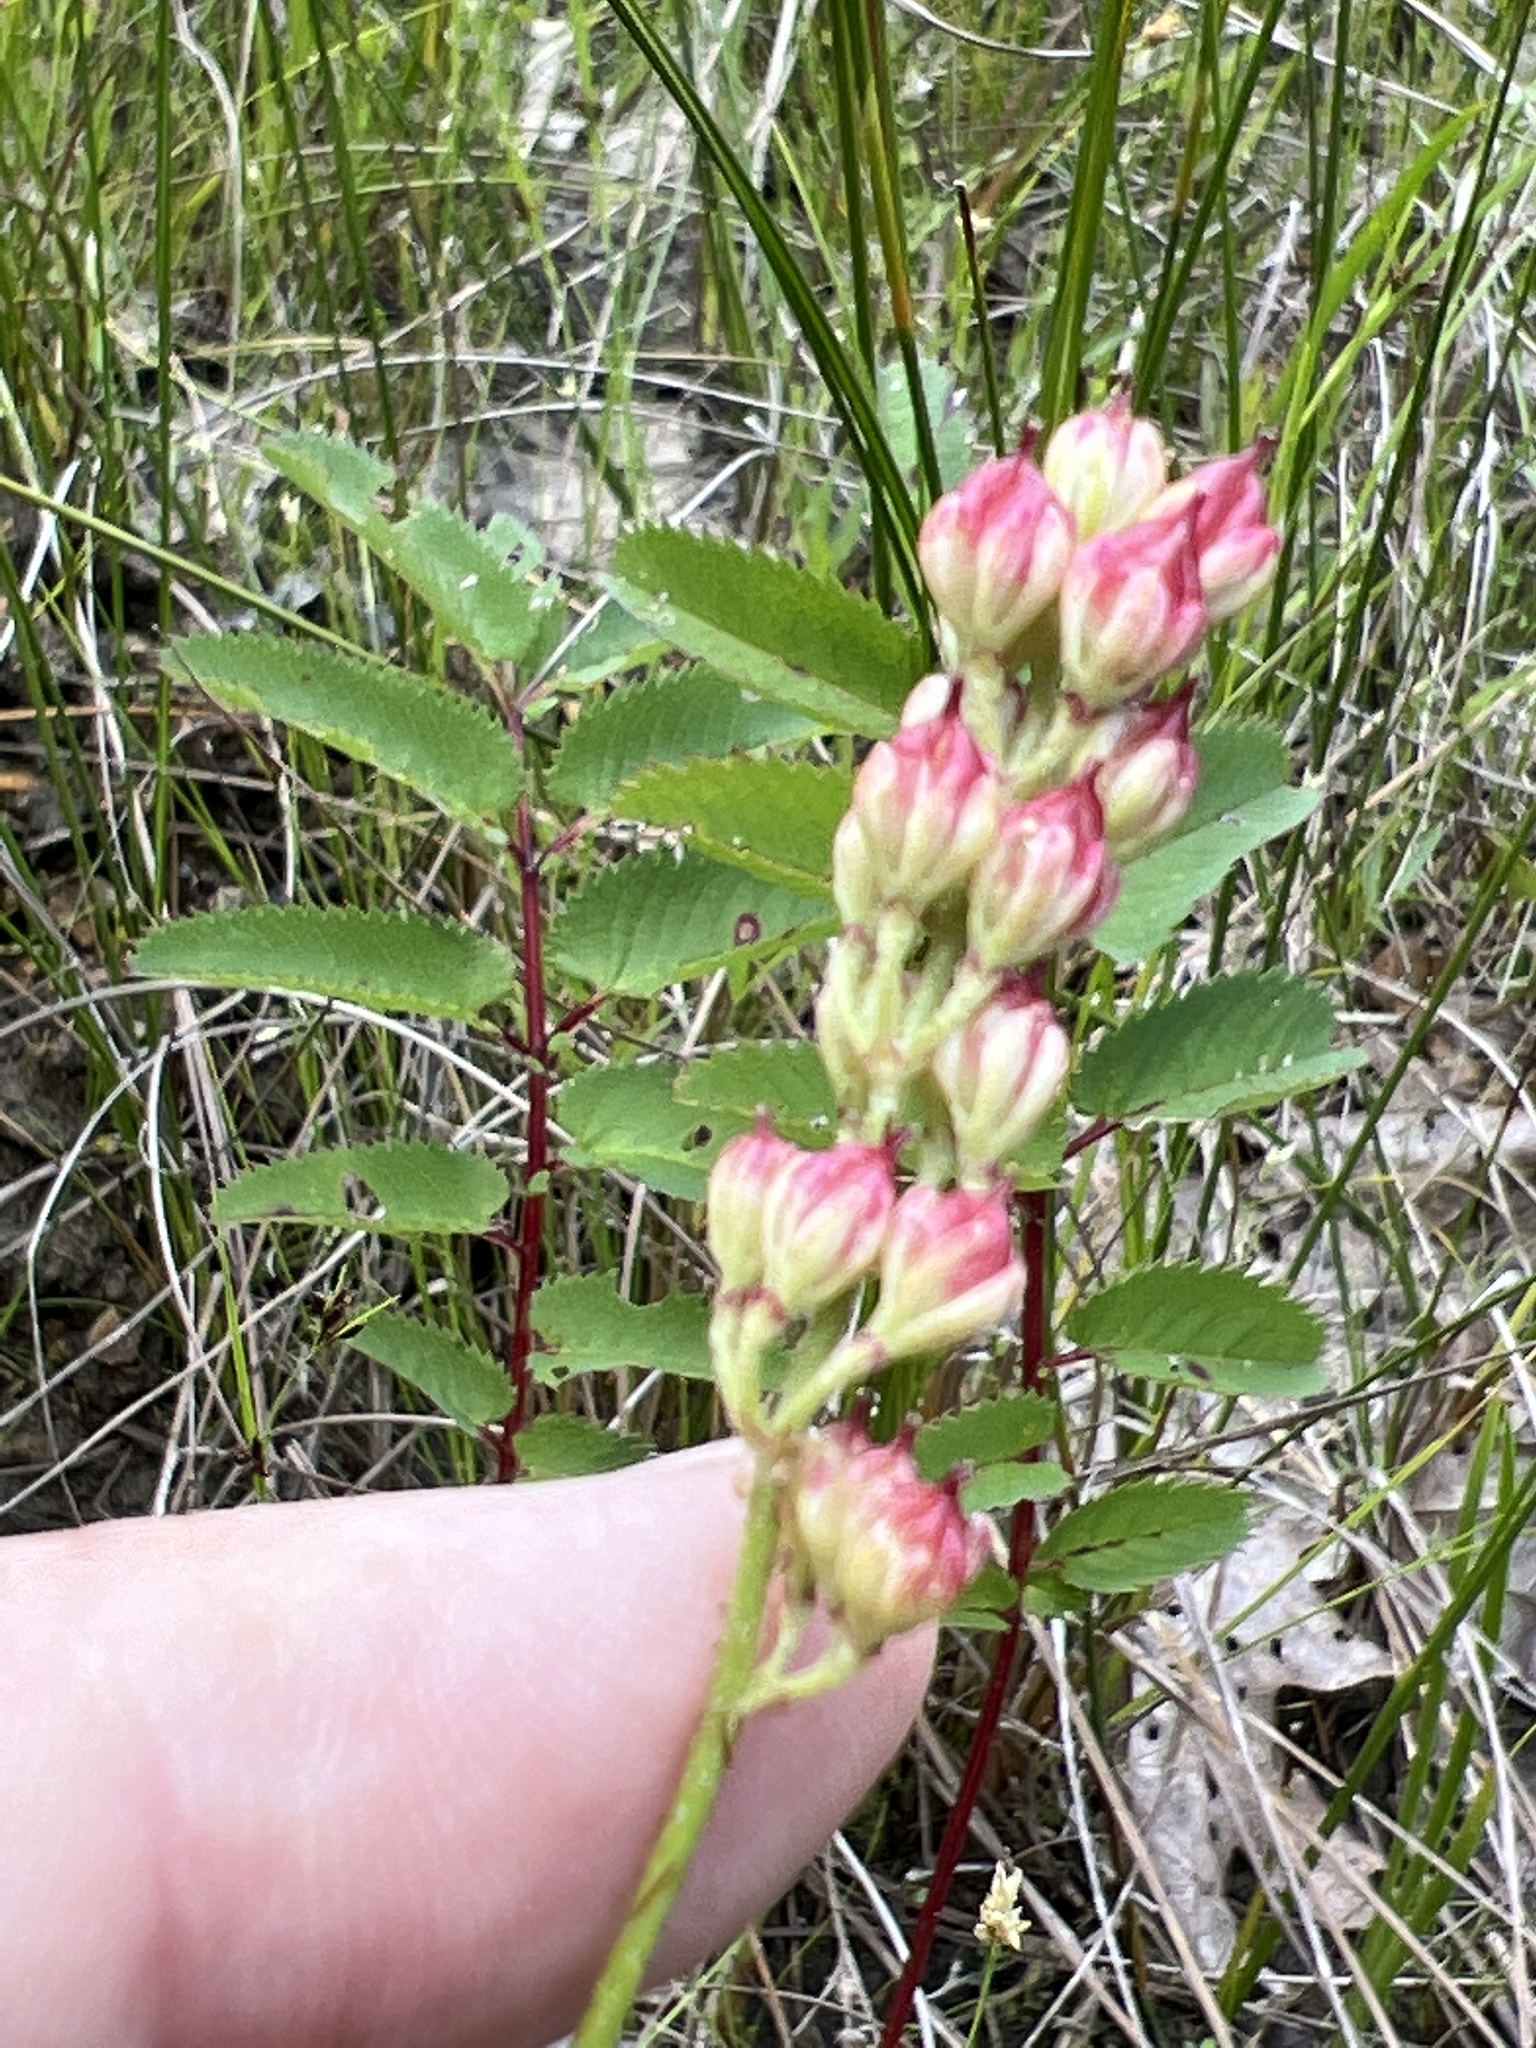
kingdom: Plantae
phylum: Tracheophyta
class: Liliopsida
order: Alismatales
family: Tofieldiaceae
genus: Triantha
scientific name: Triantha glutinosa
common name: Glutinous tofieldia
